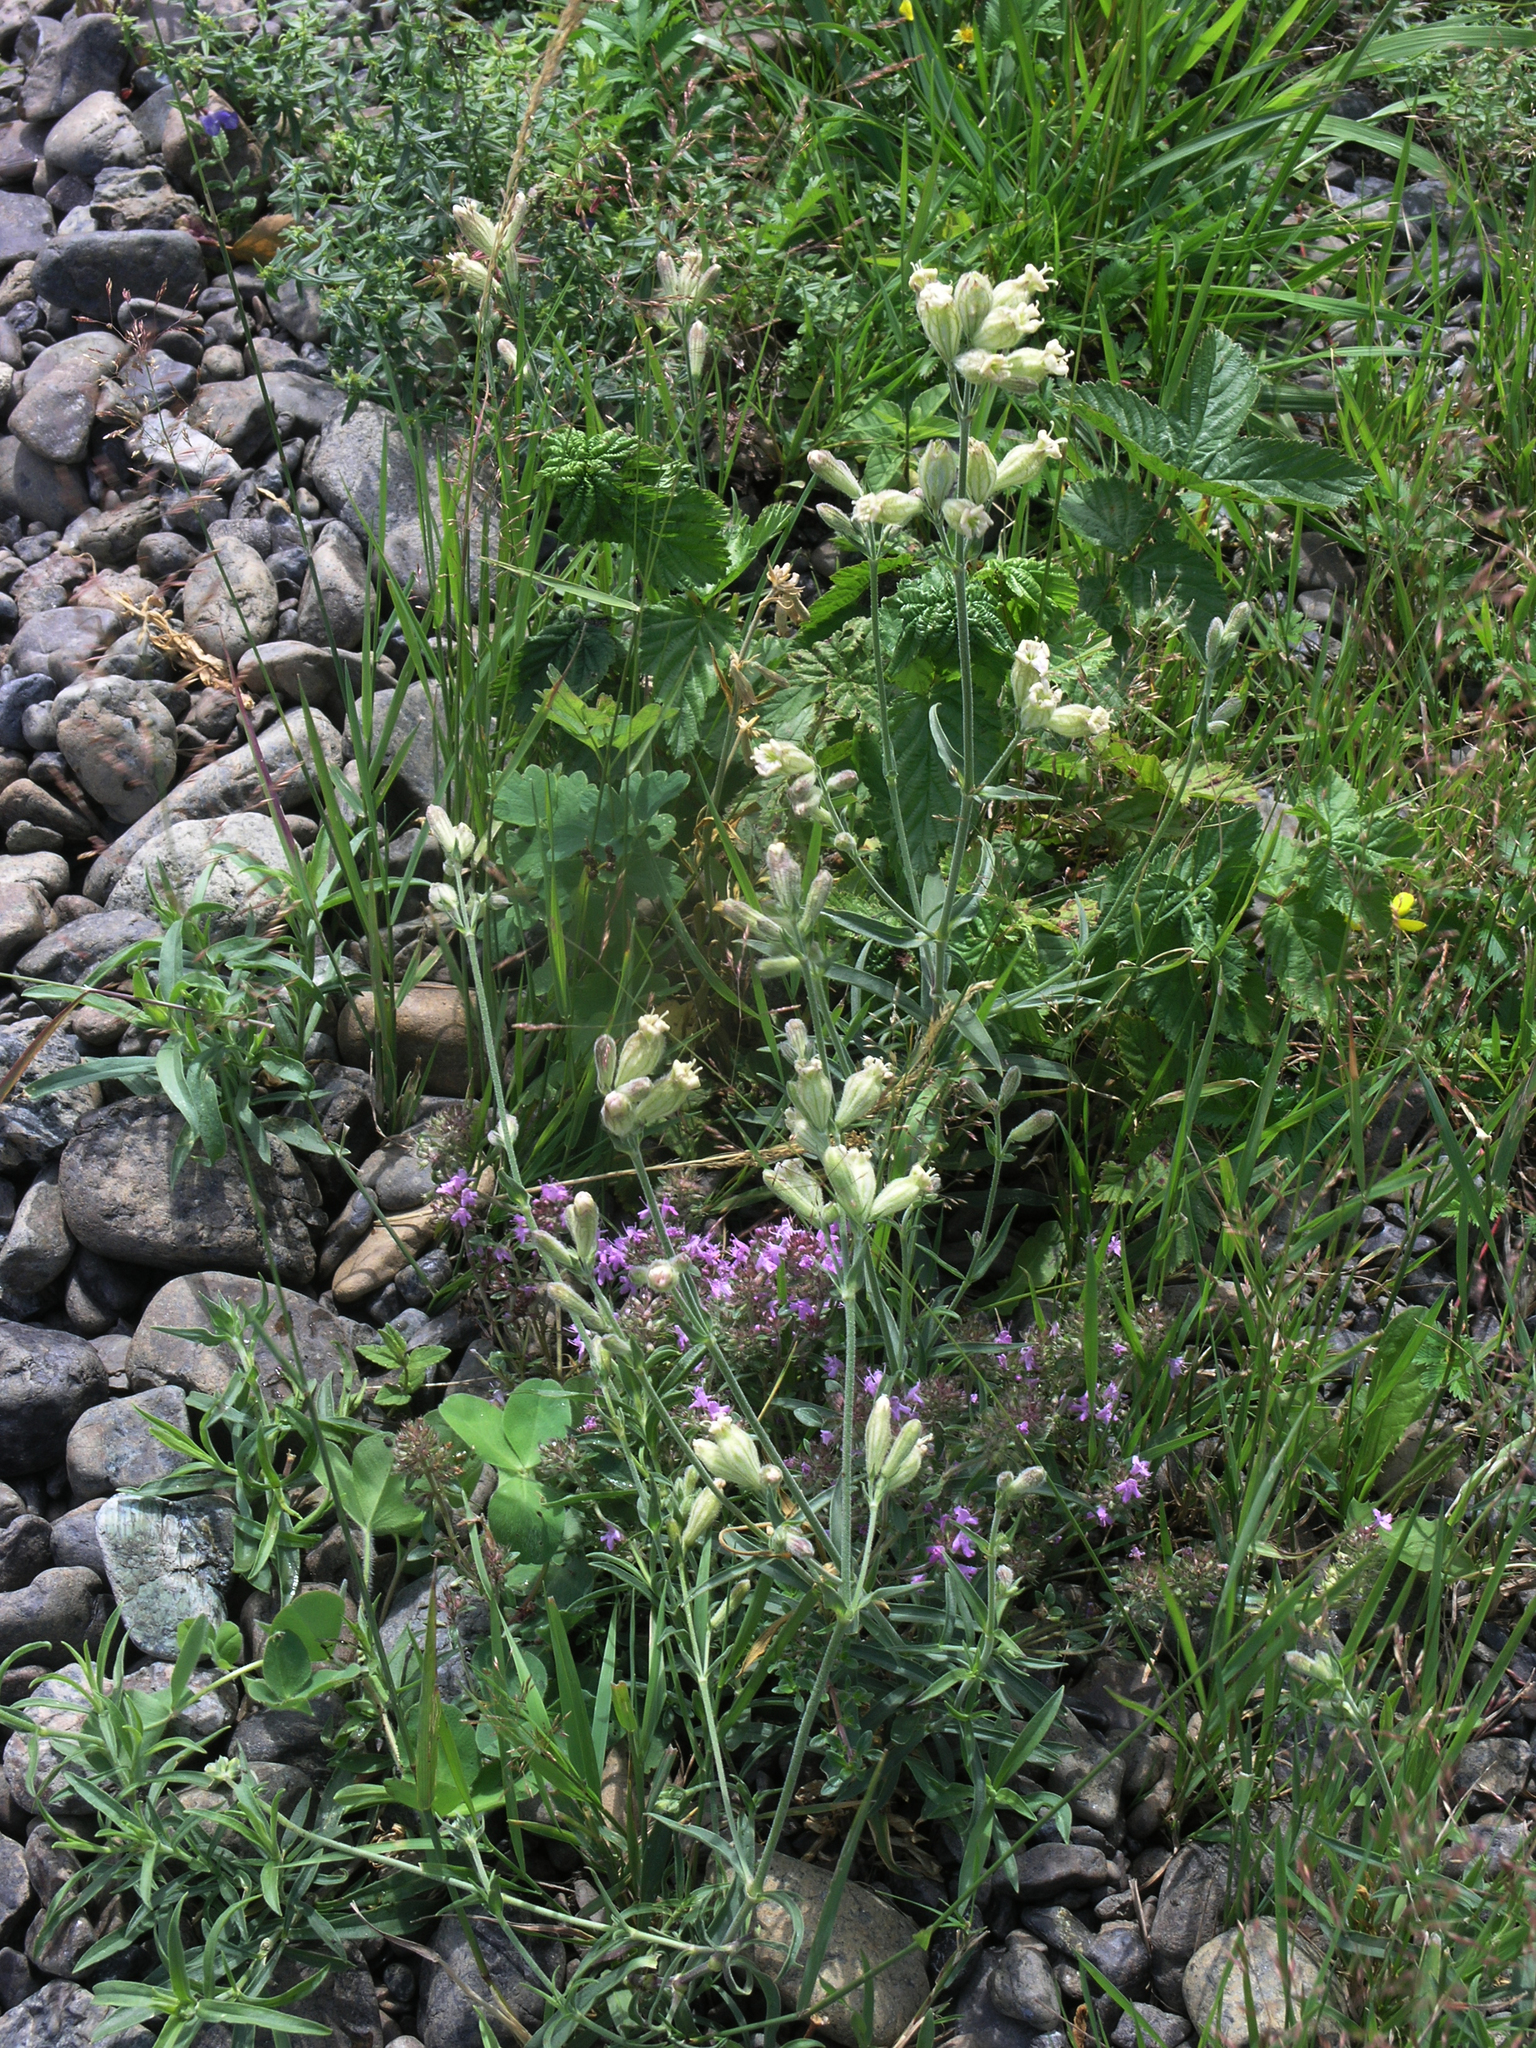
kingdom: Plantae
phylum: Tracheophyta
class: Magnoliopsida
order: Caryophyllales
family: Caryophyllaceae
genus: Silene
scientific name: Silene repens
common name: Pink campion
